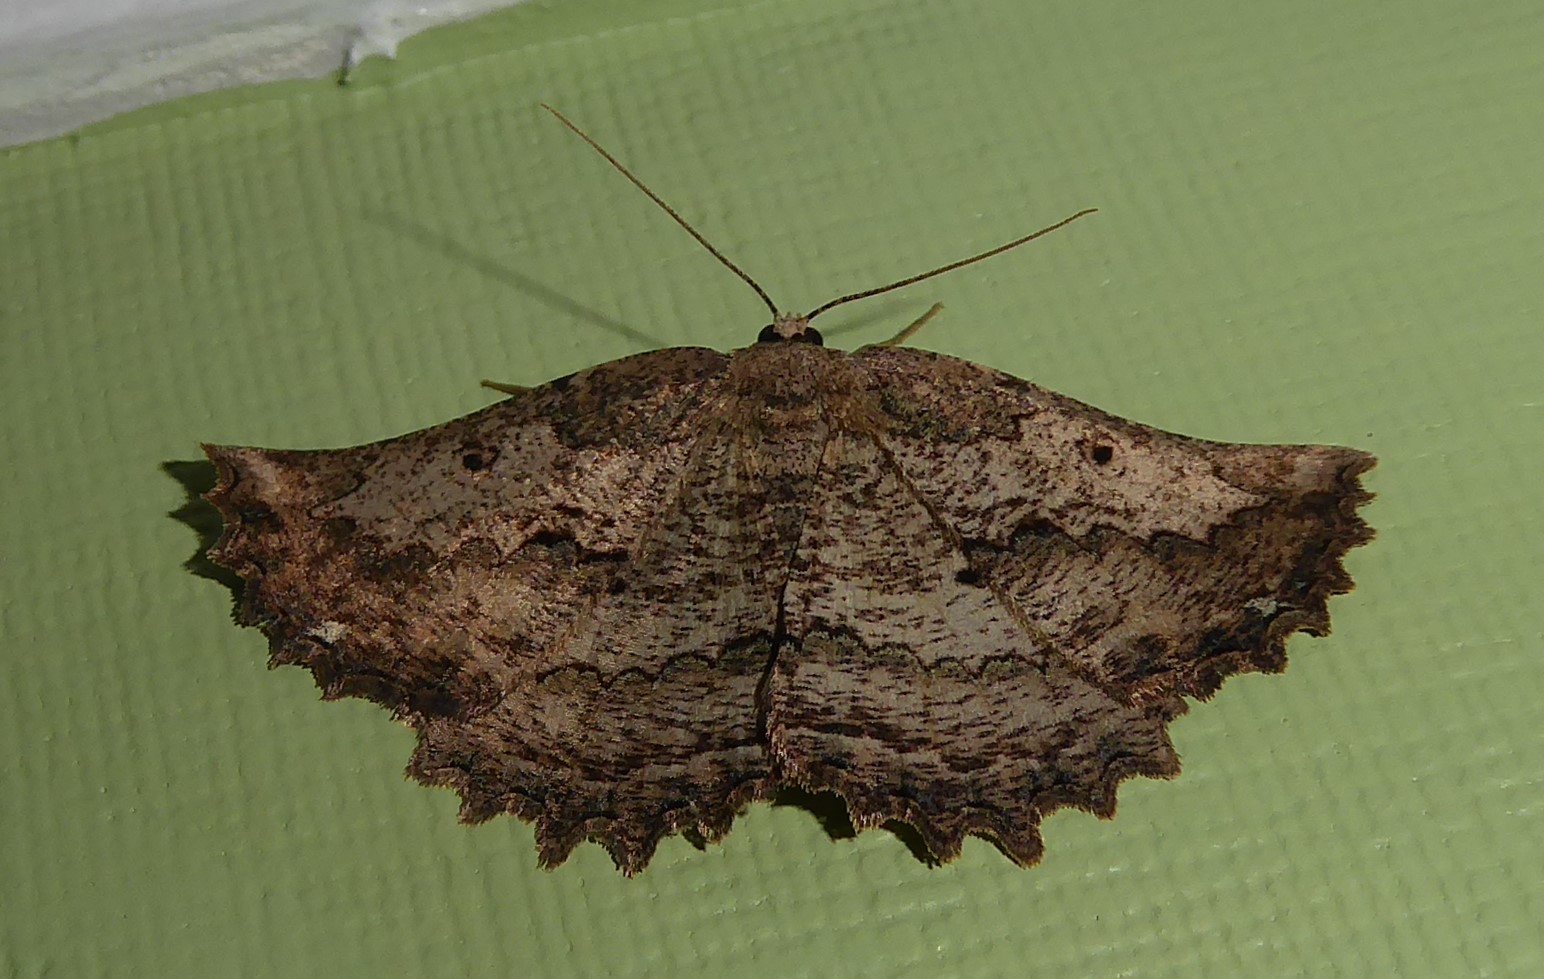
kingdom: Animalia
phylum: Arthropoda
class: Insecta
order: Lepidoptera
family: Geometridae
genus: Gellonia
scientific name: Gellonia pannularia
